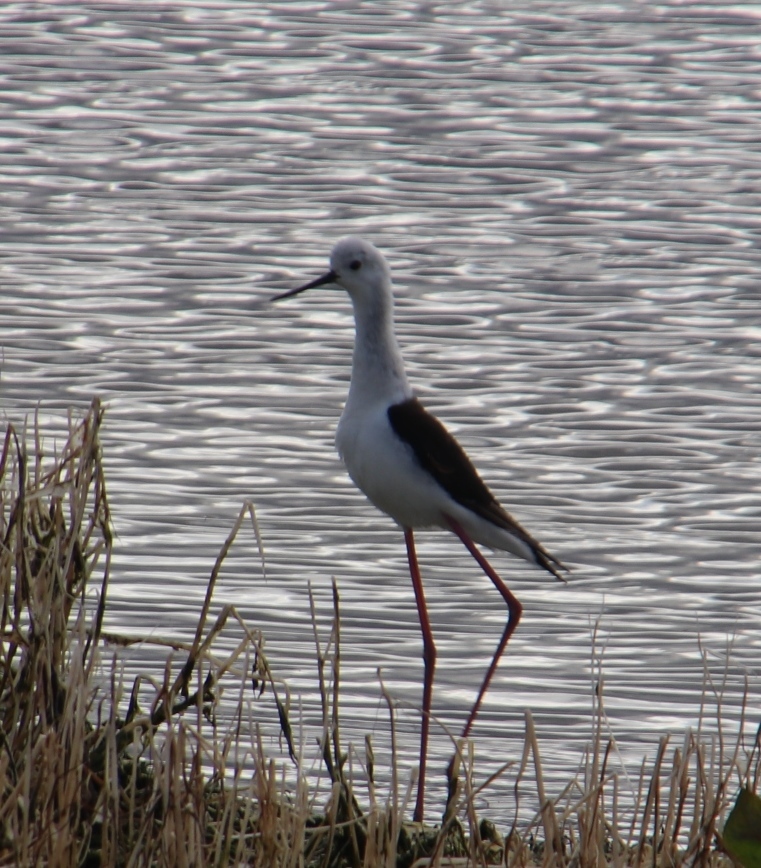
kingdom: Animalia
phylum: Chordata
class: Aves
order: Charadriiformes
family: Recurvirostridae
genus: Himantopus
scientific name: Himantopus himantopus
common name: Black-winged stilt
